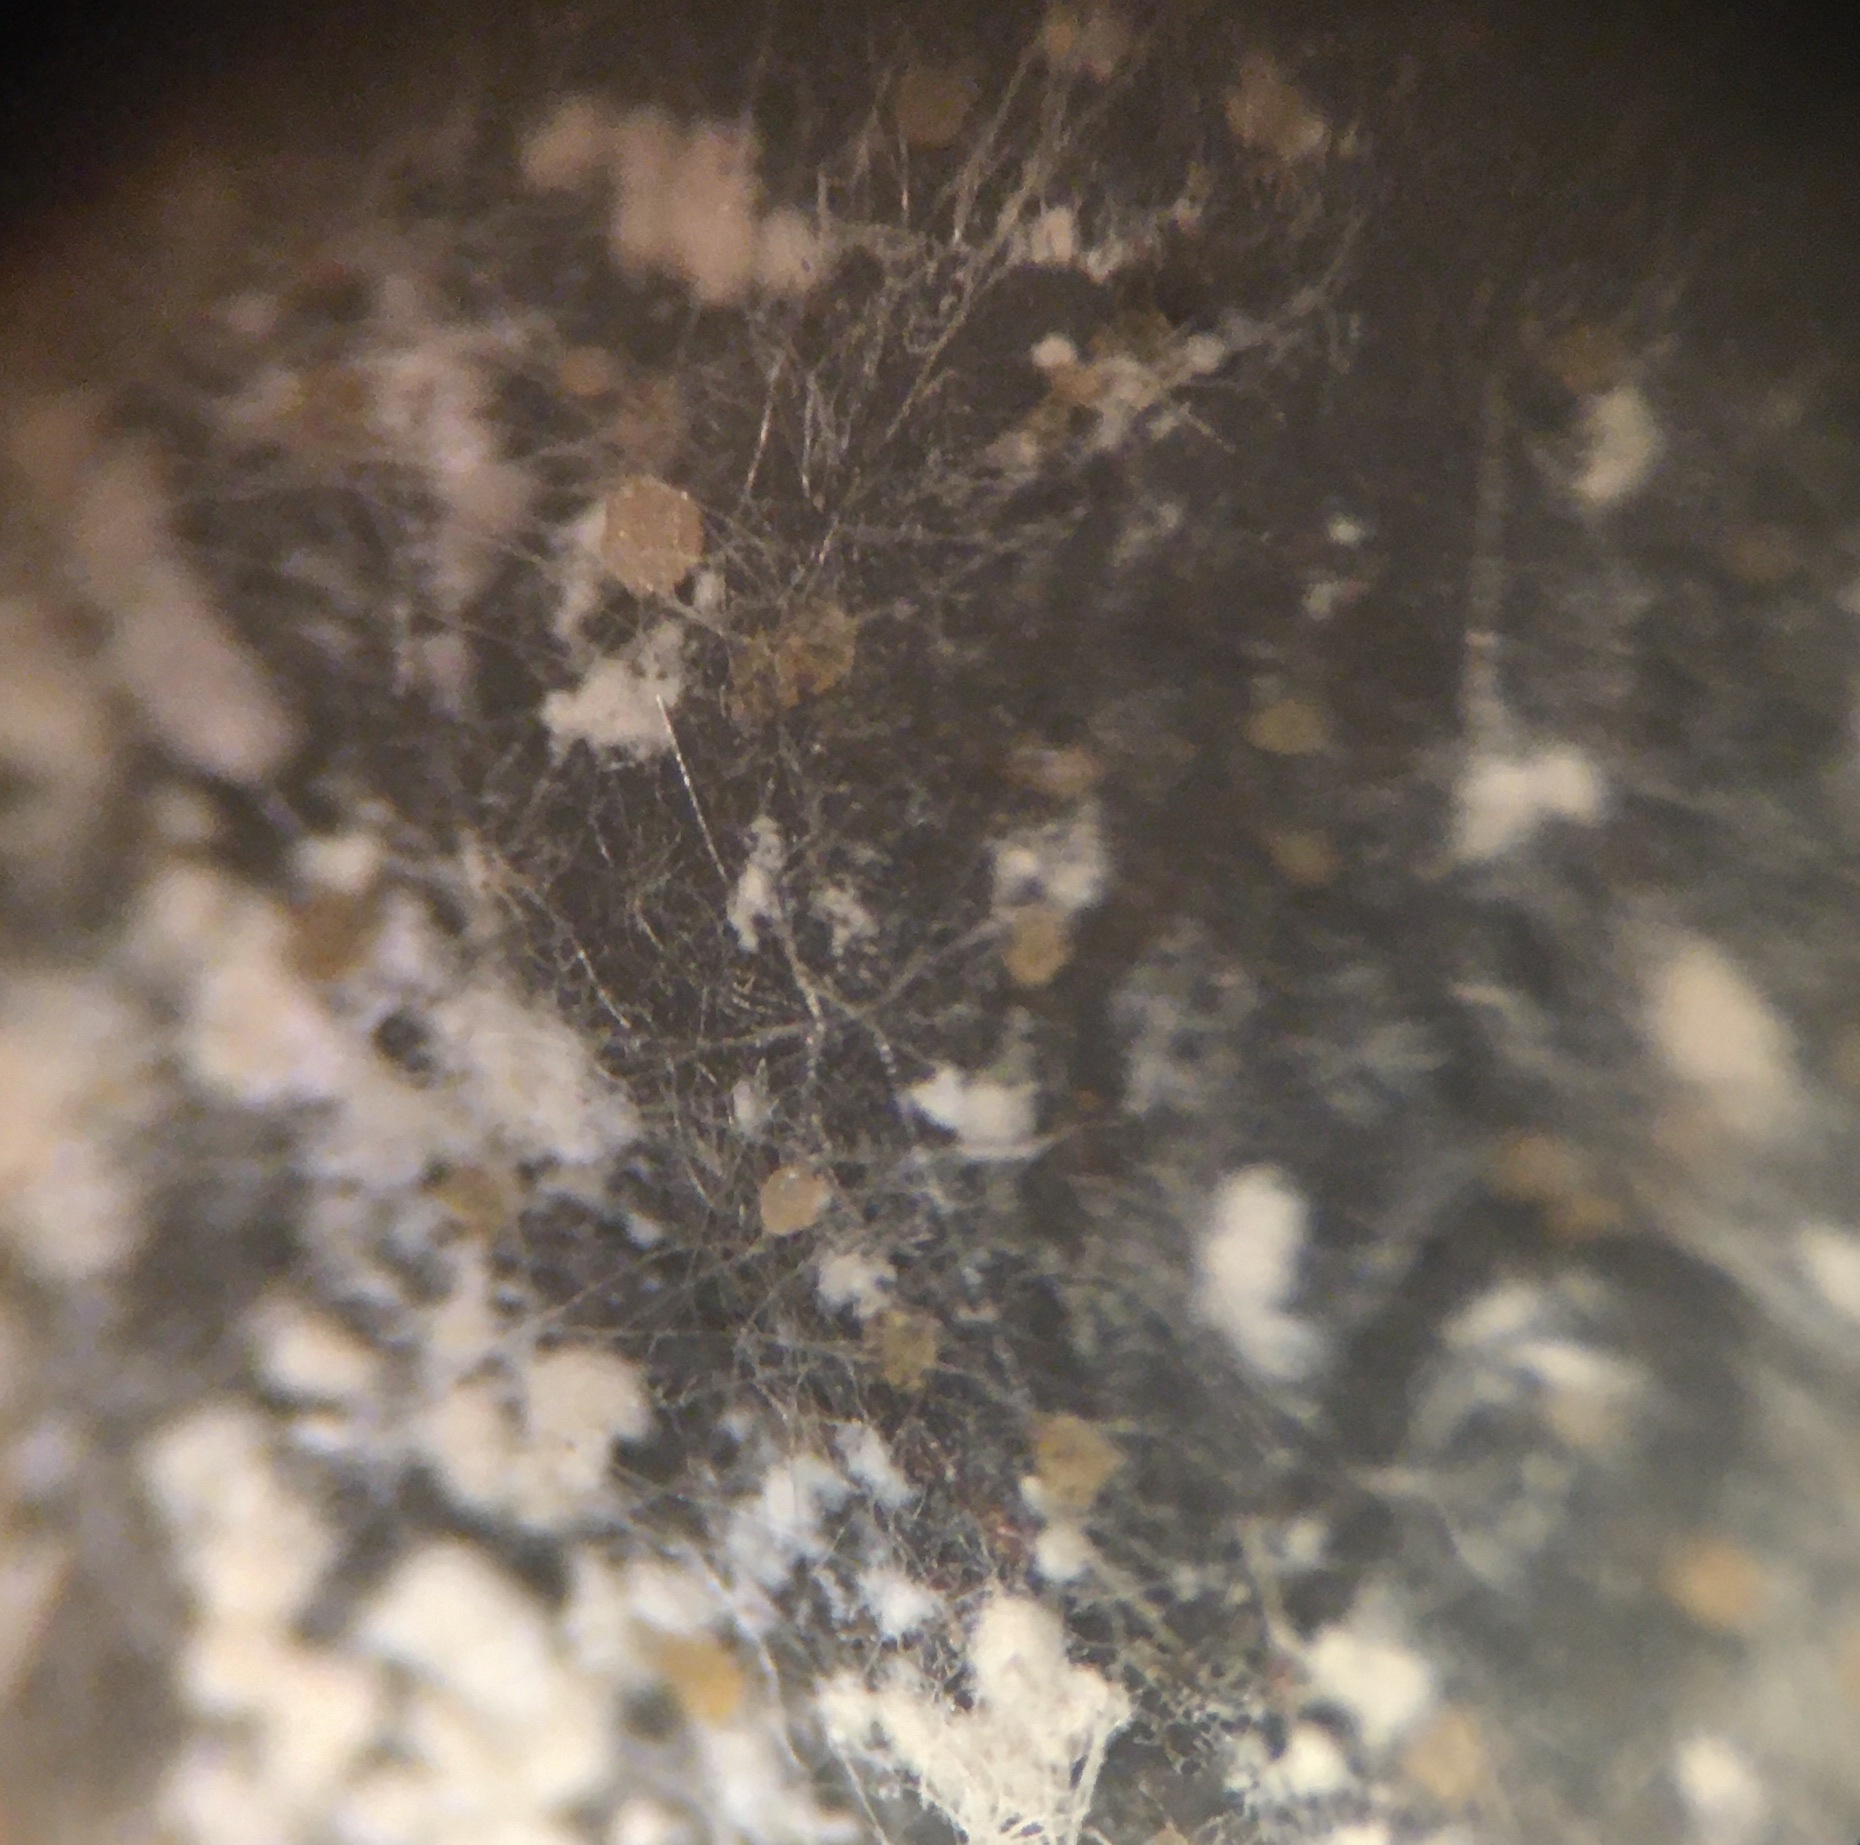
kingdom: Fungi
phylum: Ascomycota
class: Pezizomycetes
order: Pezizales
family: Ascobolaceae
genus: Saccobolus
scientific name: Saccobolus minimoides
